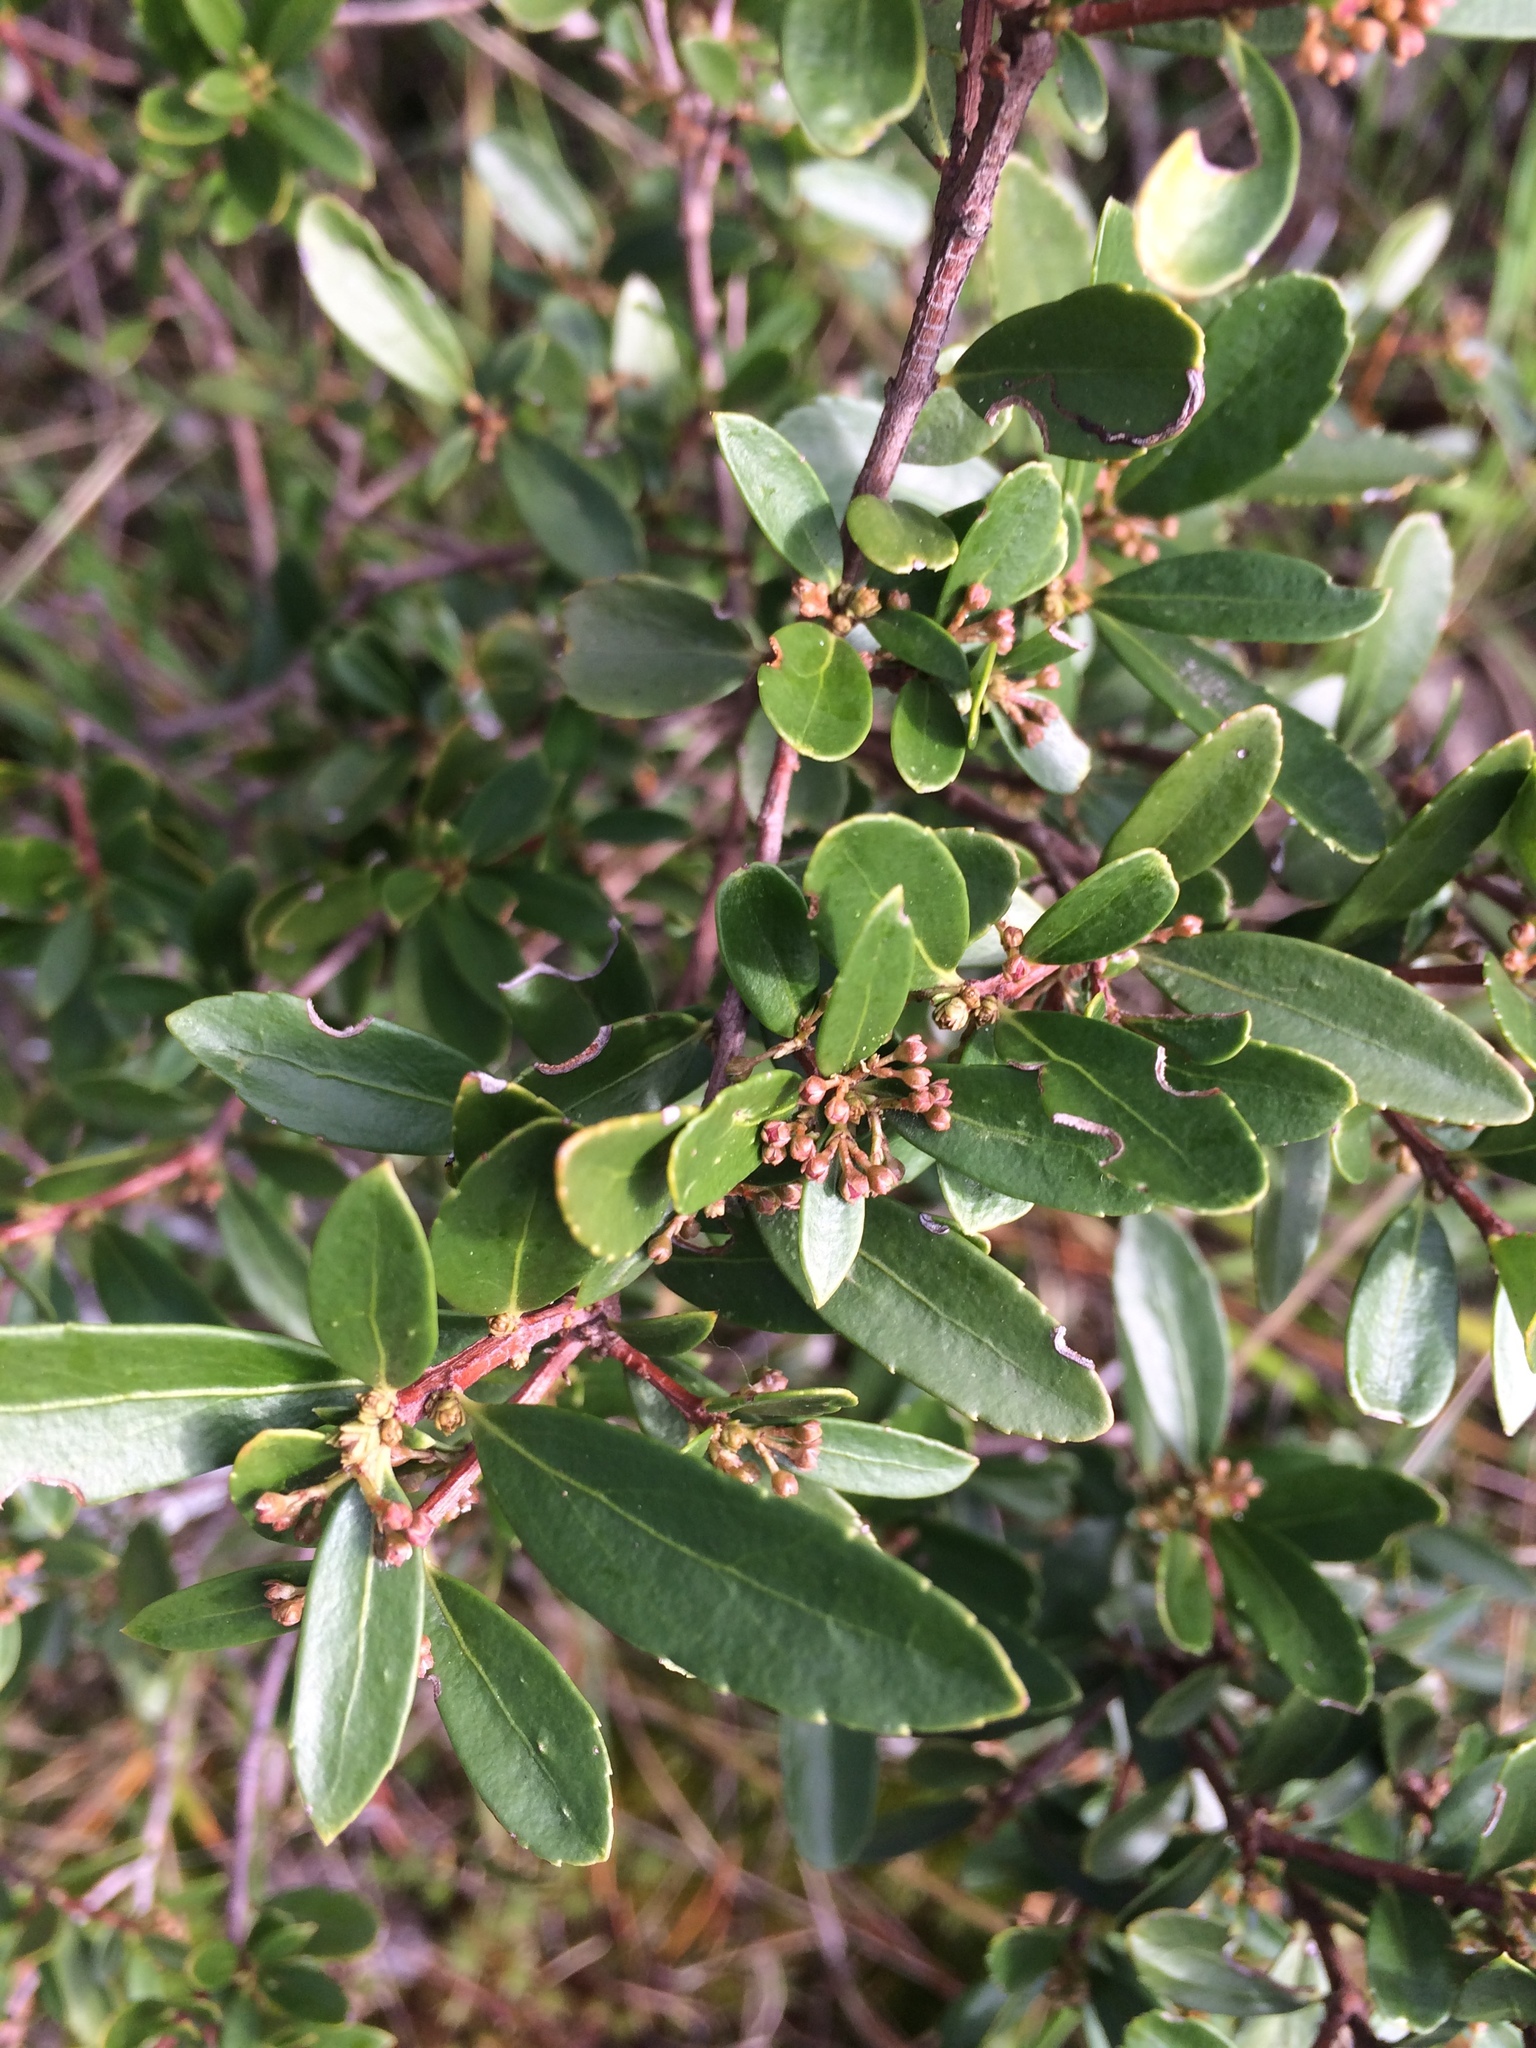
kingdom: Plantae
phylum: Tracheophyta
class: Magnoliopsida
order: Celastrales
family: Celastraceae
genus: Paxistima
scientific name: Paxistima myrsinites
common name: Mountain-lover
